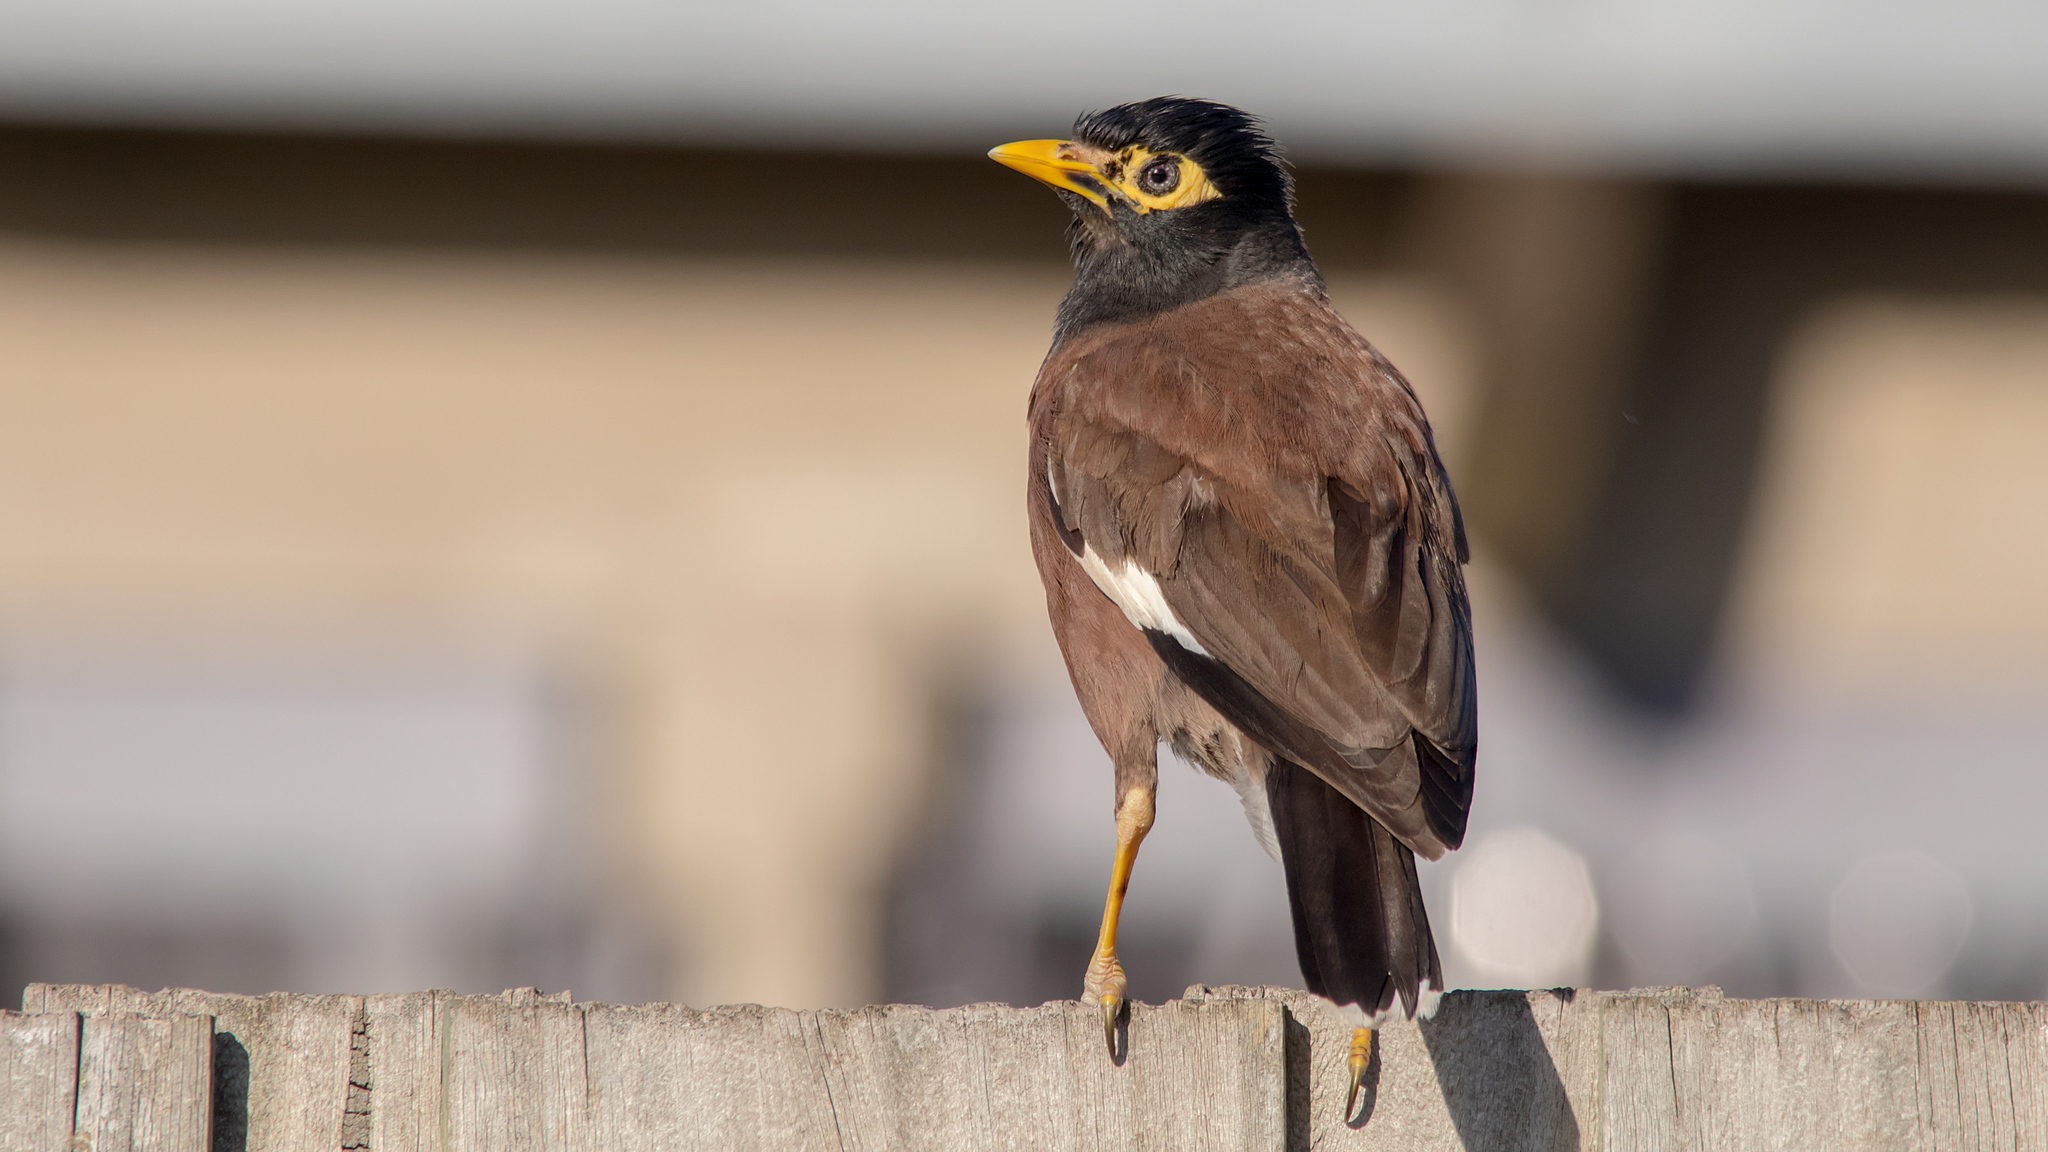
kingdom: Animalia
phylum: Chordata
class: Aves
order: Passeriformes
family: Sturnidae
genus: Acridotheres
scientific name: Acridotheres tristis
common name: Common myna
